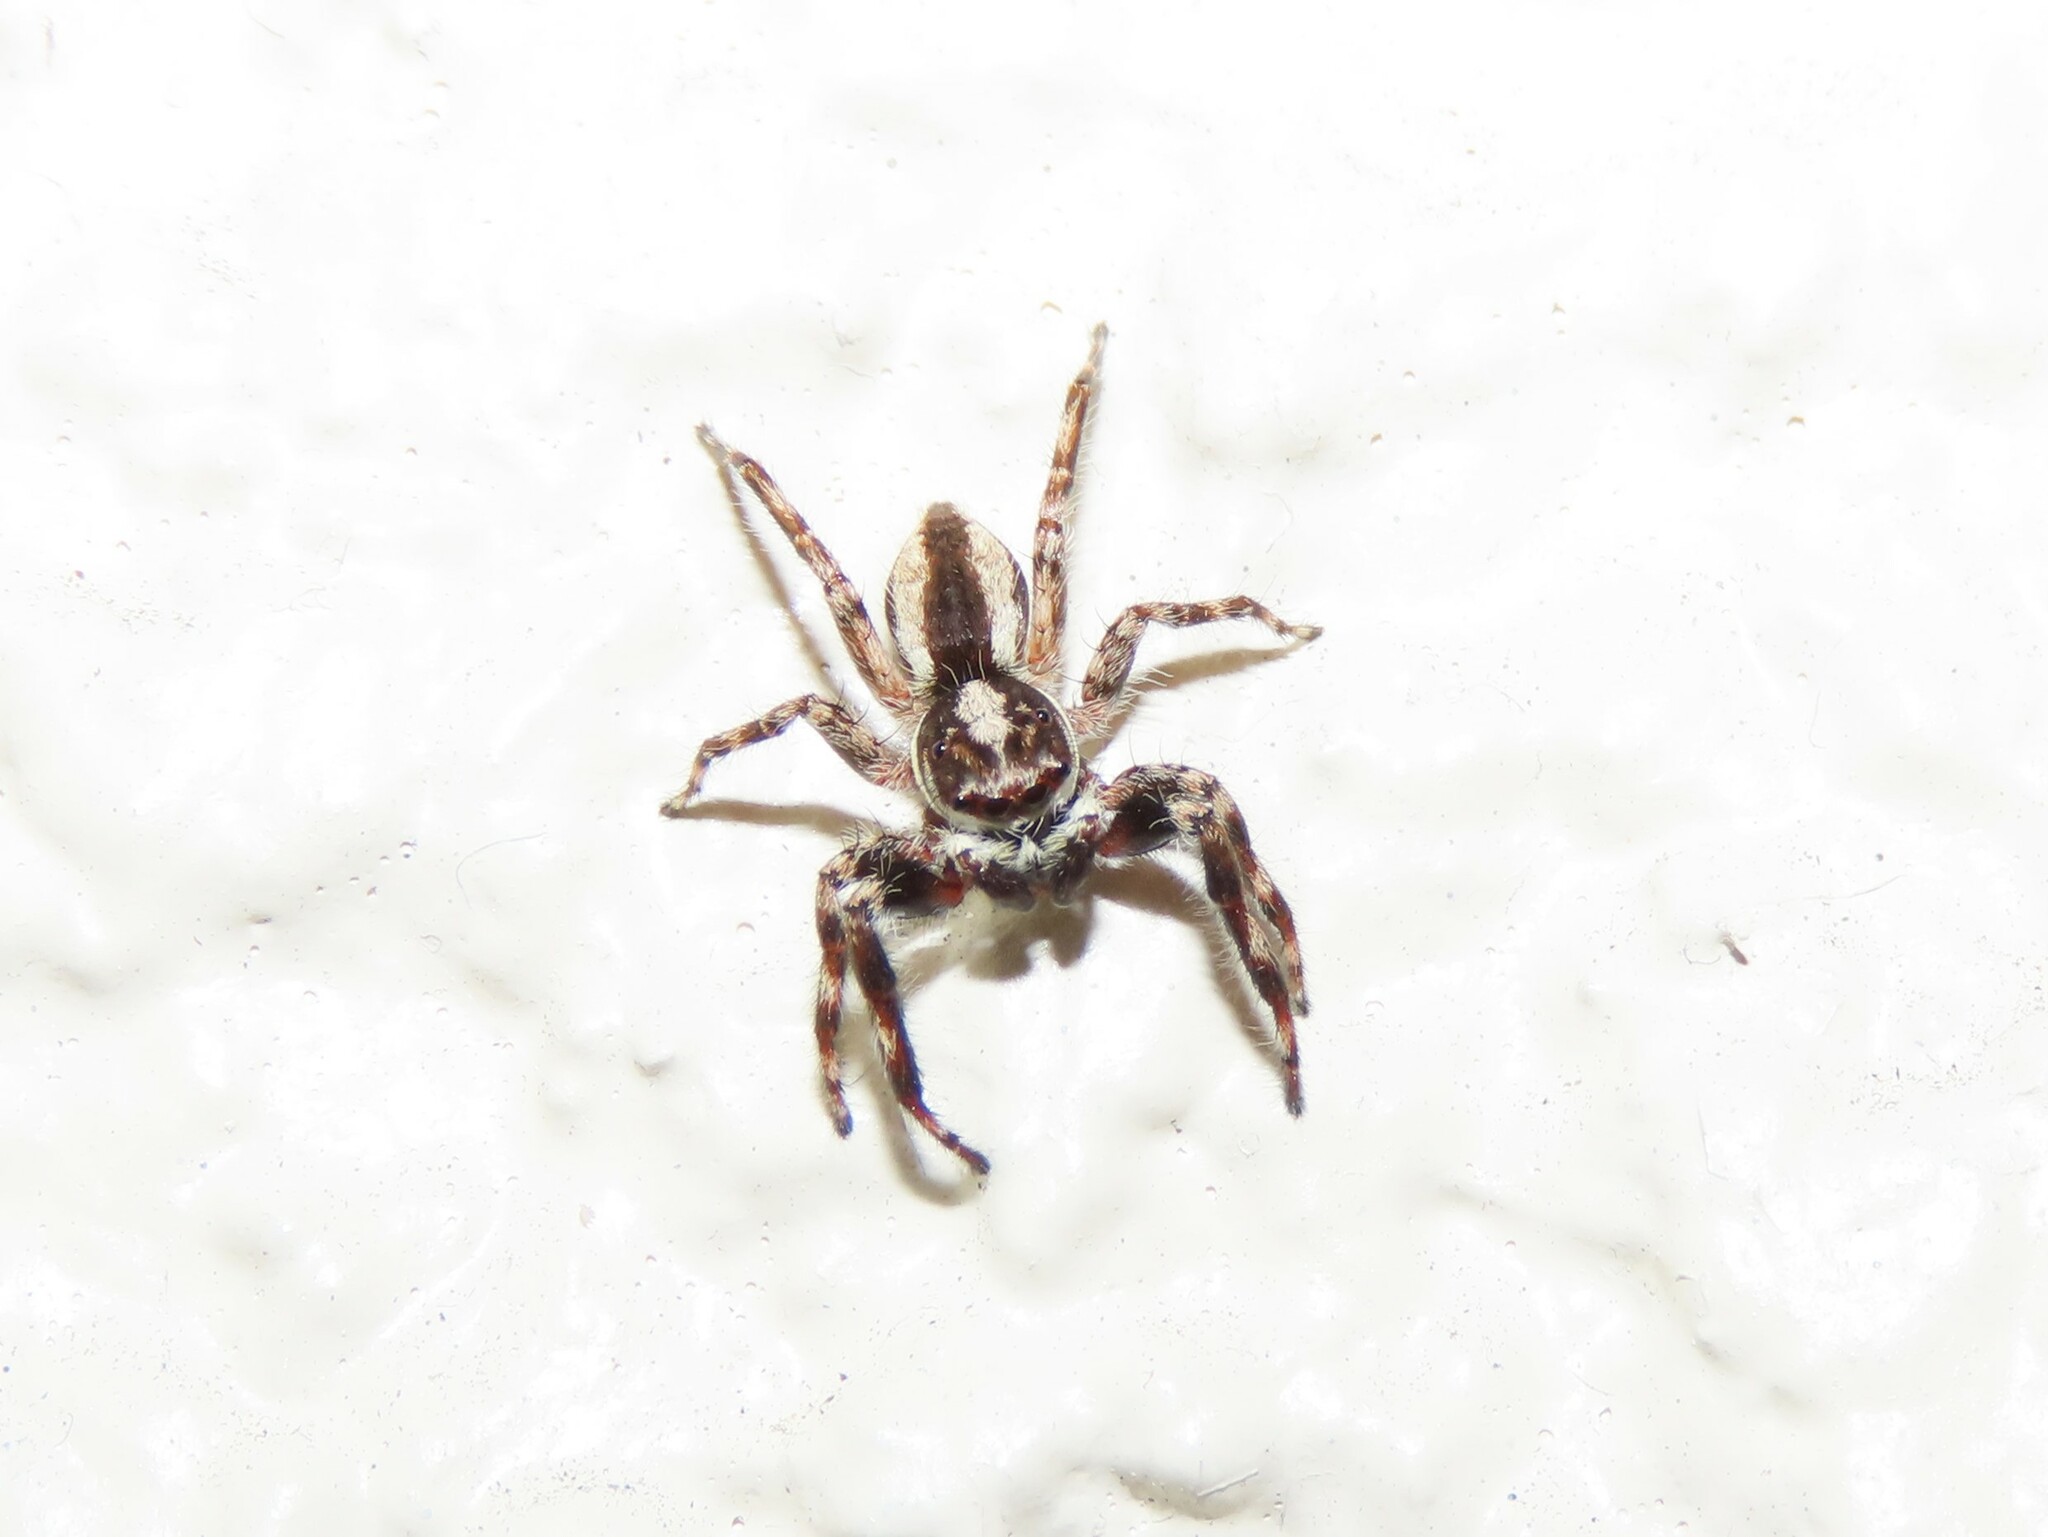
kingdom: Animalia
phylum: Arthropoda
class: Arachnida
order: Araneae
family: Salticidae
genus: Menemerus
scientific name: Menemerus bivittatus
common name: Gray wall jumper
